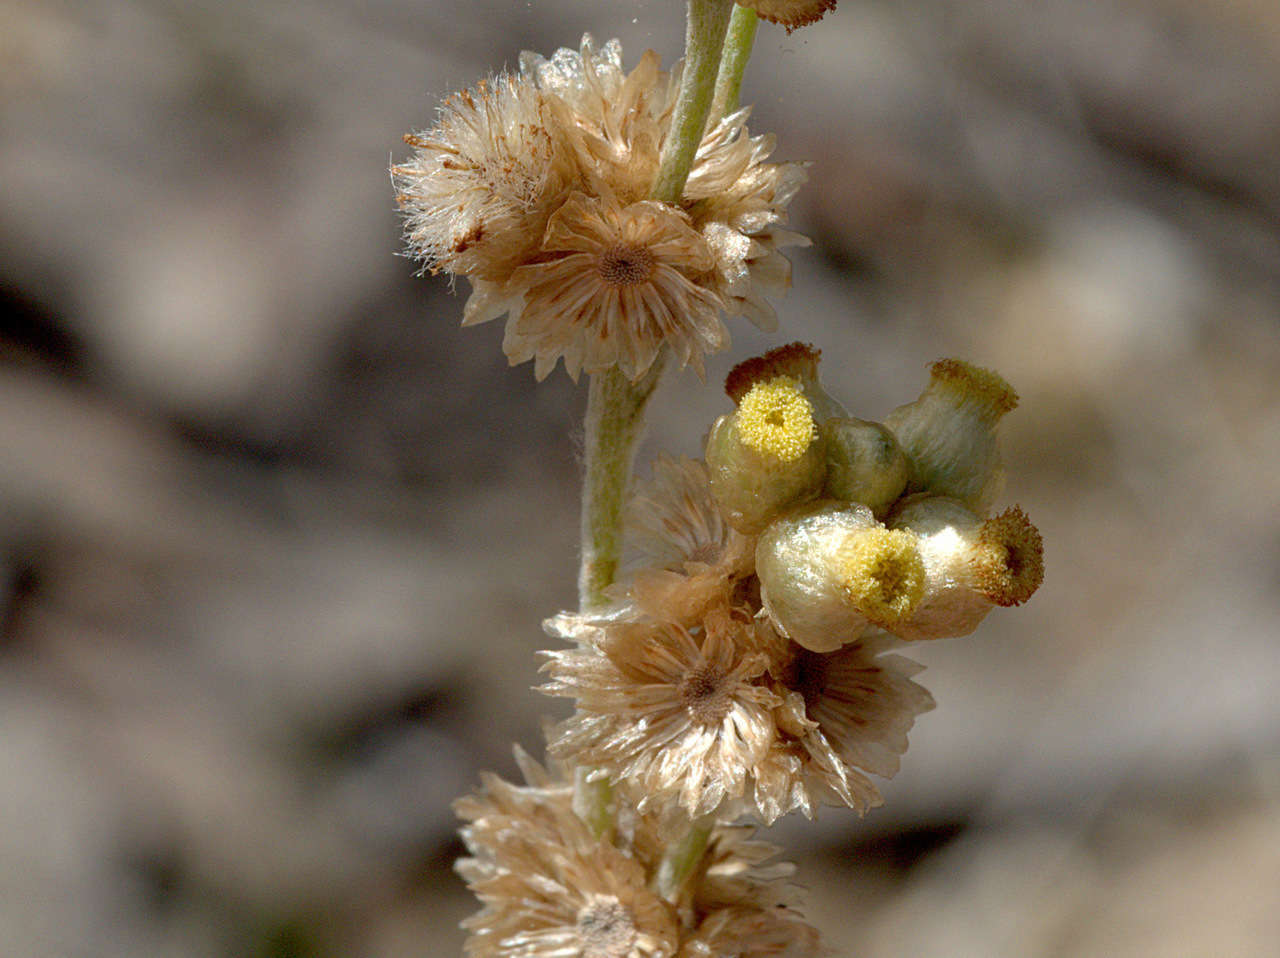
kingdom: Plantae
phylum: Tracheophyta
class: Magnoliopsida
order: Asterales
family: Asteraceae
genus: Helichrysum
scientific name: Helichrysum luteoalbum
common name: Daisy
